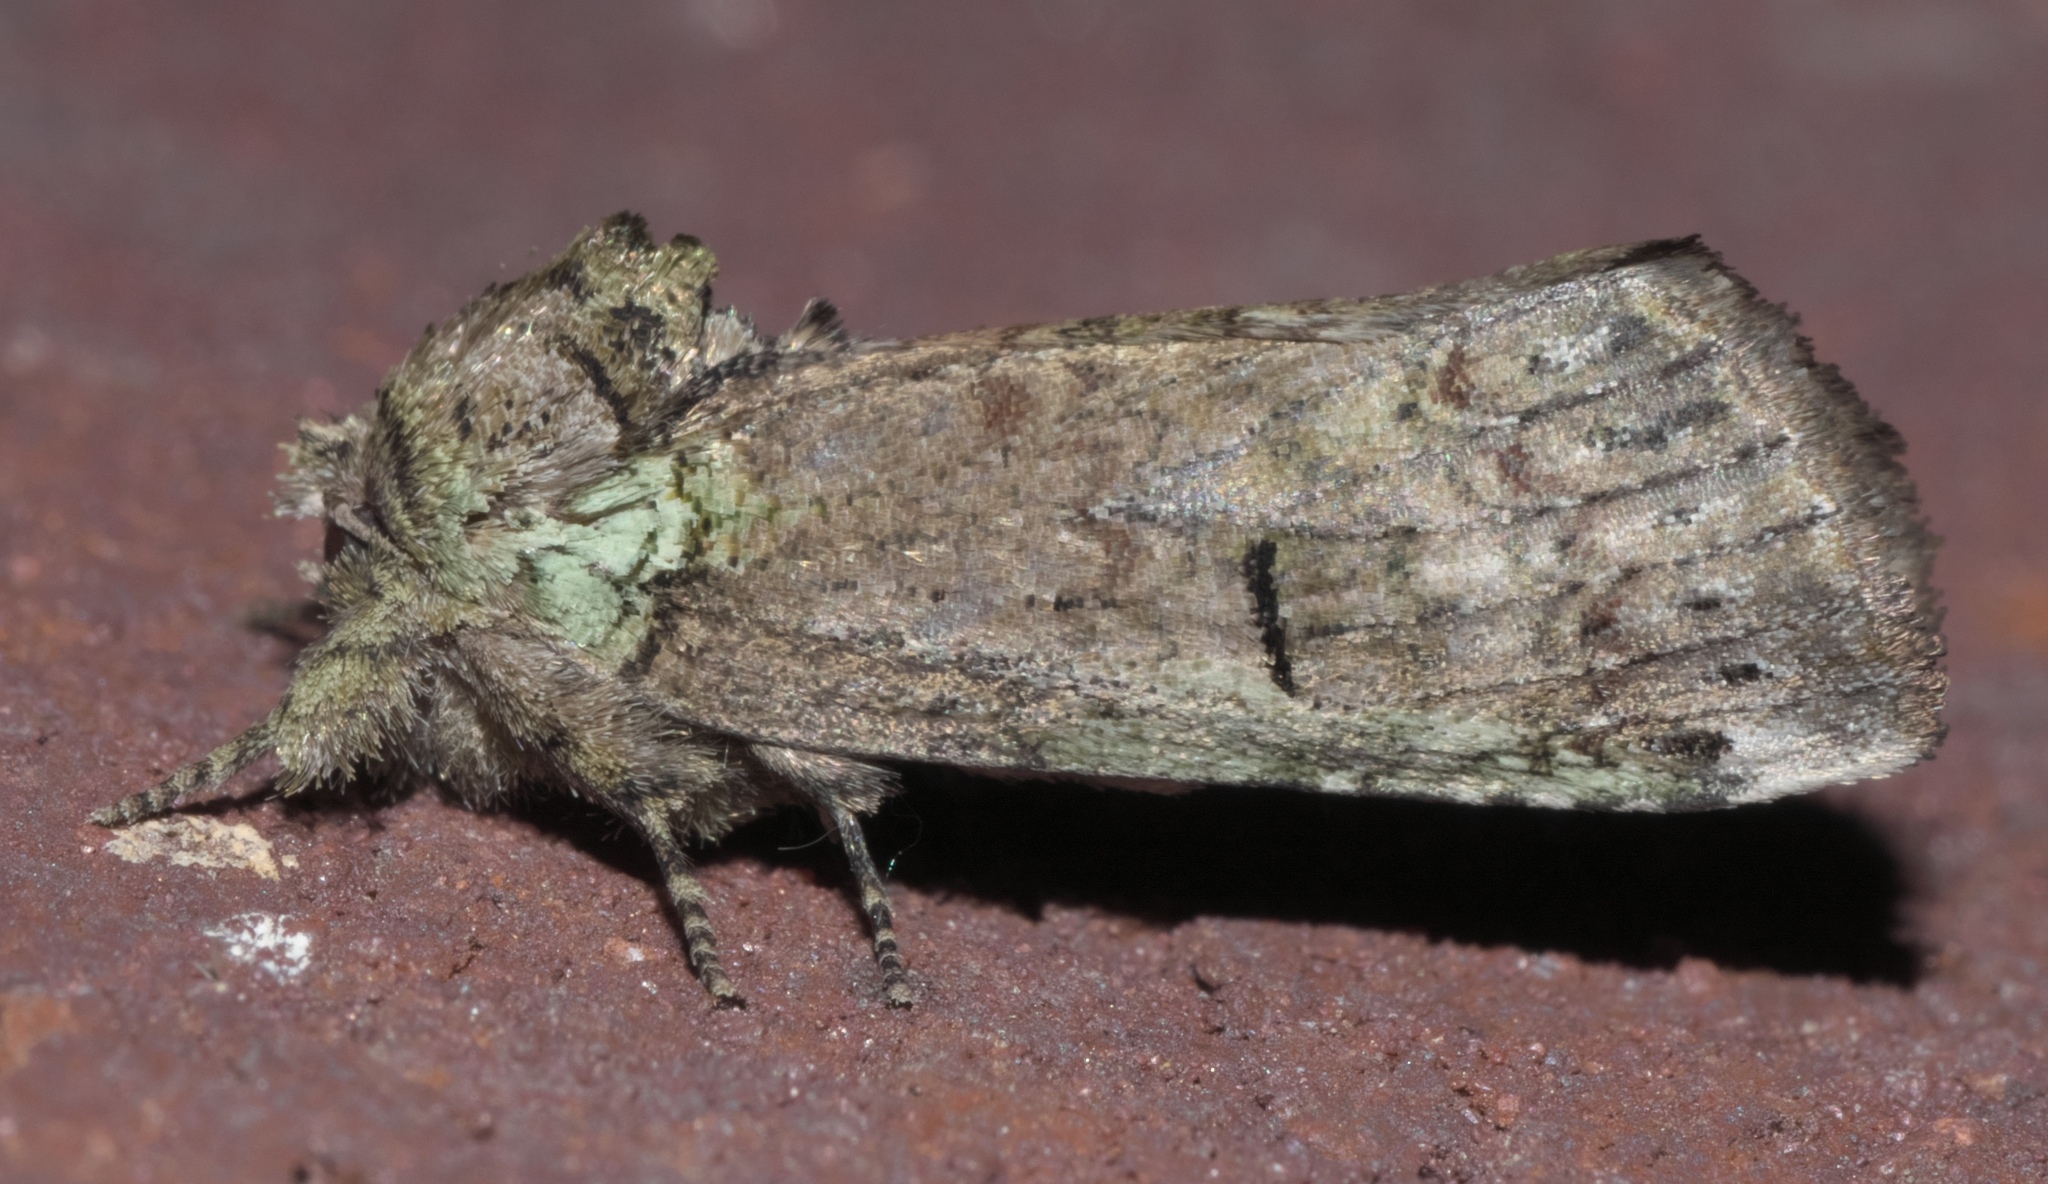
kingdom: Animalia
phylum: Arthropoda
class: Insecta
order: Lepidoptera
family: Notodontidae
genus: Schizura
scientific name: Schizura
